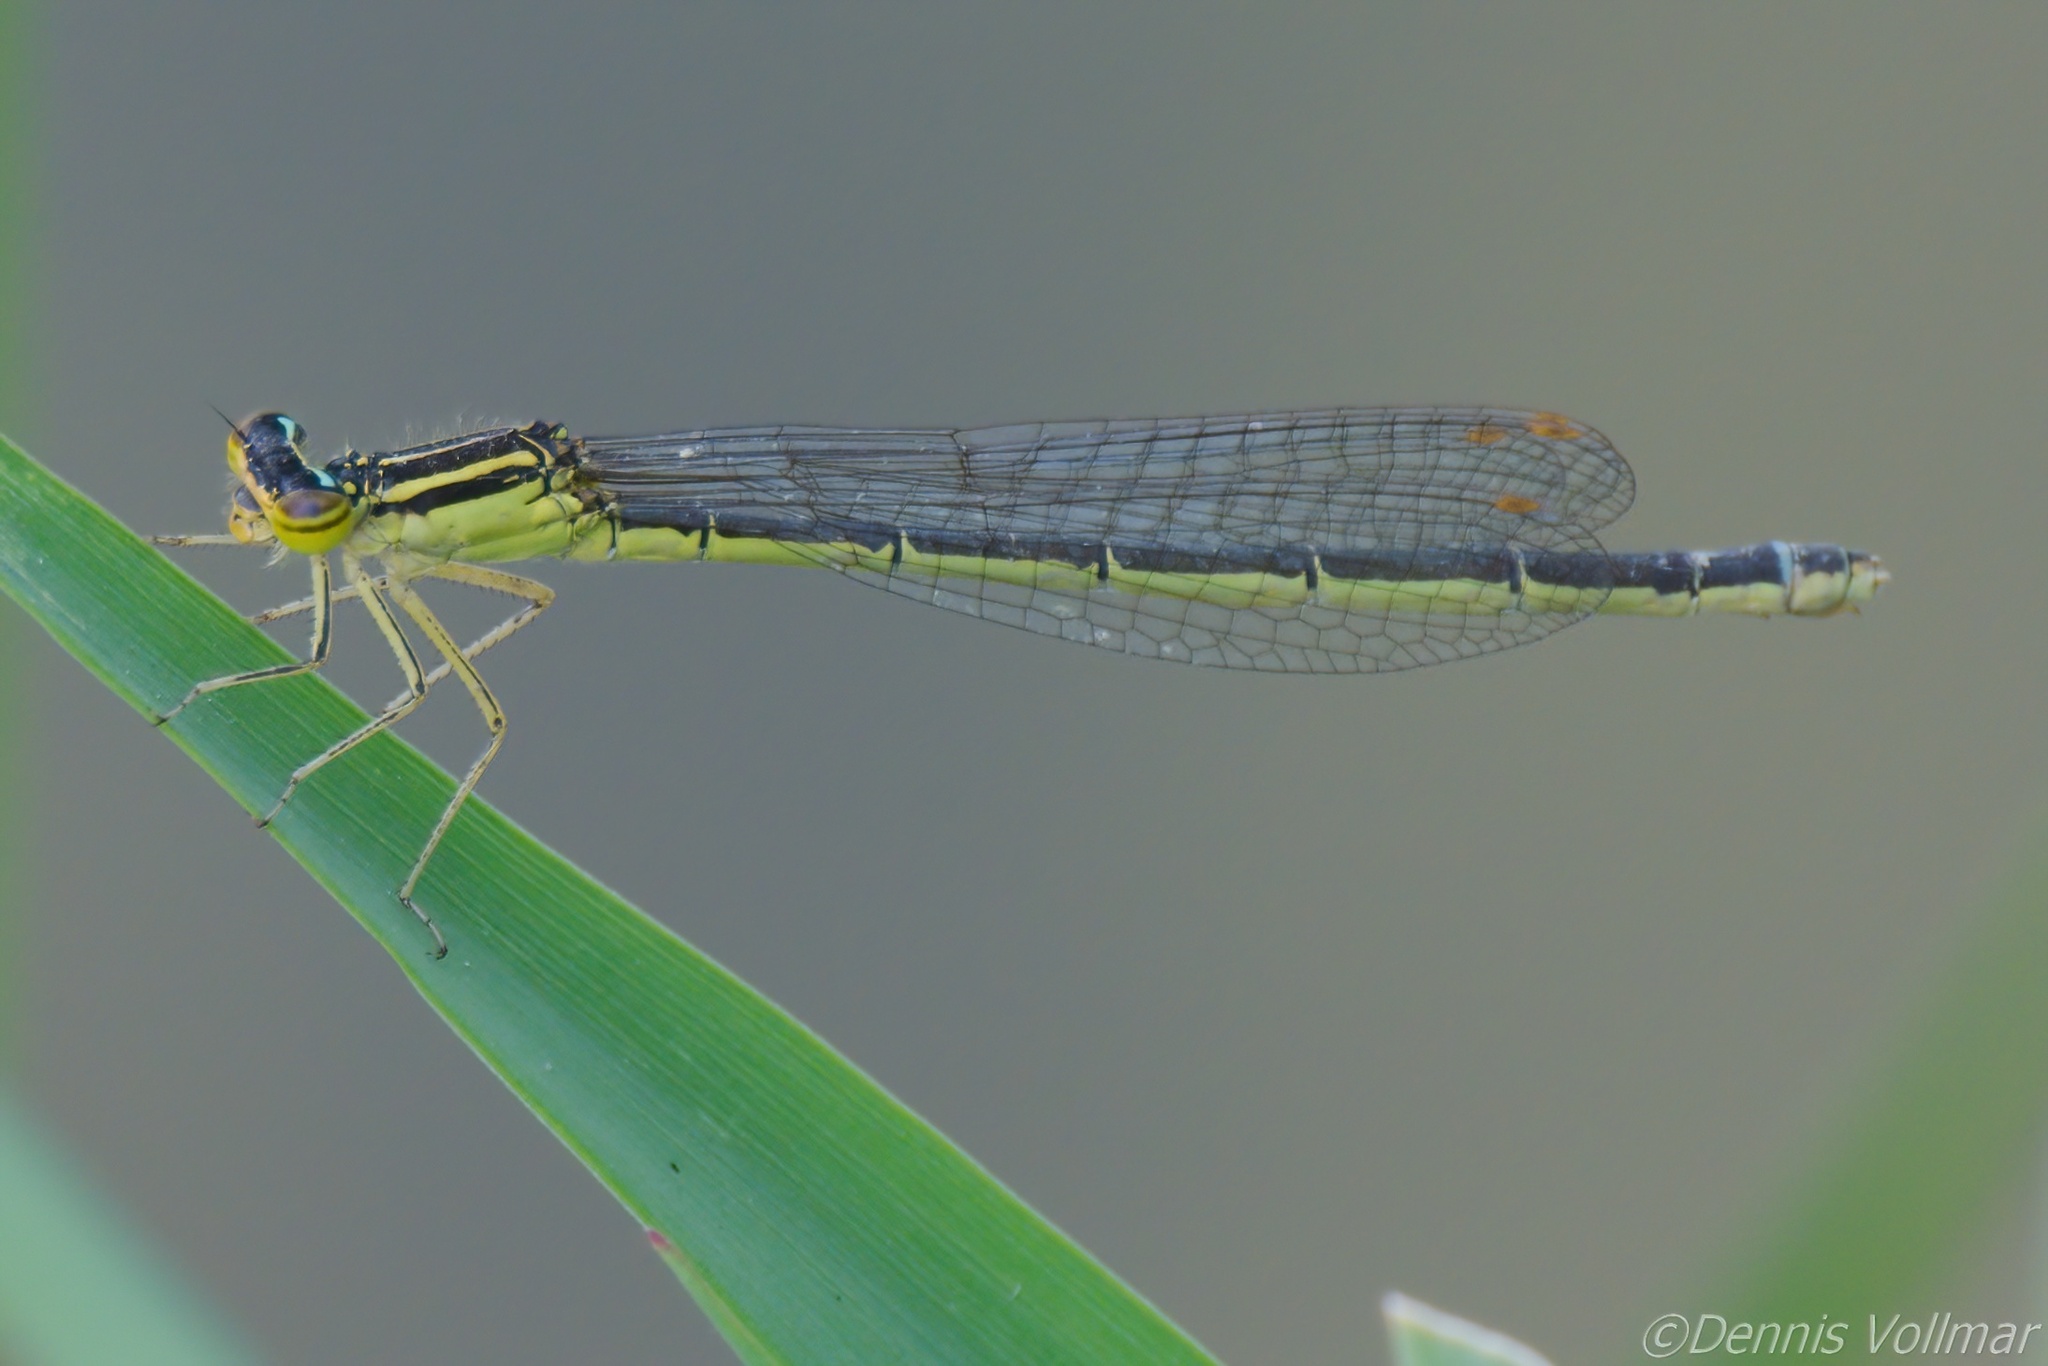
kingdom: Animalia
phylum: Arthropoda
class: Insecta
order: Odonata
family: Coenagrionidae
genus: Enallagma
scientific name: Enallagma antennatum
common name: Rainbow bluet
